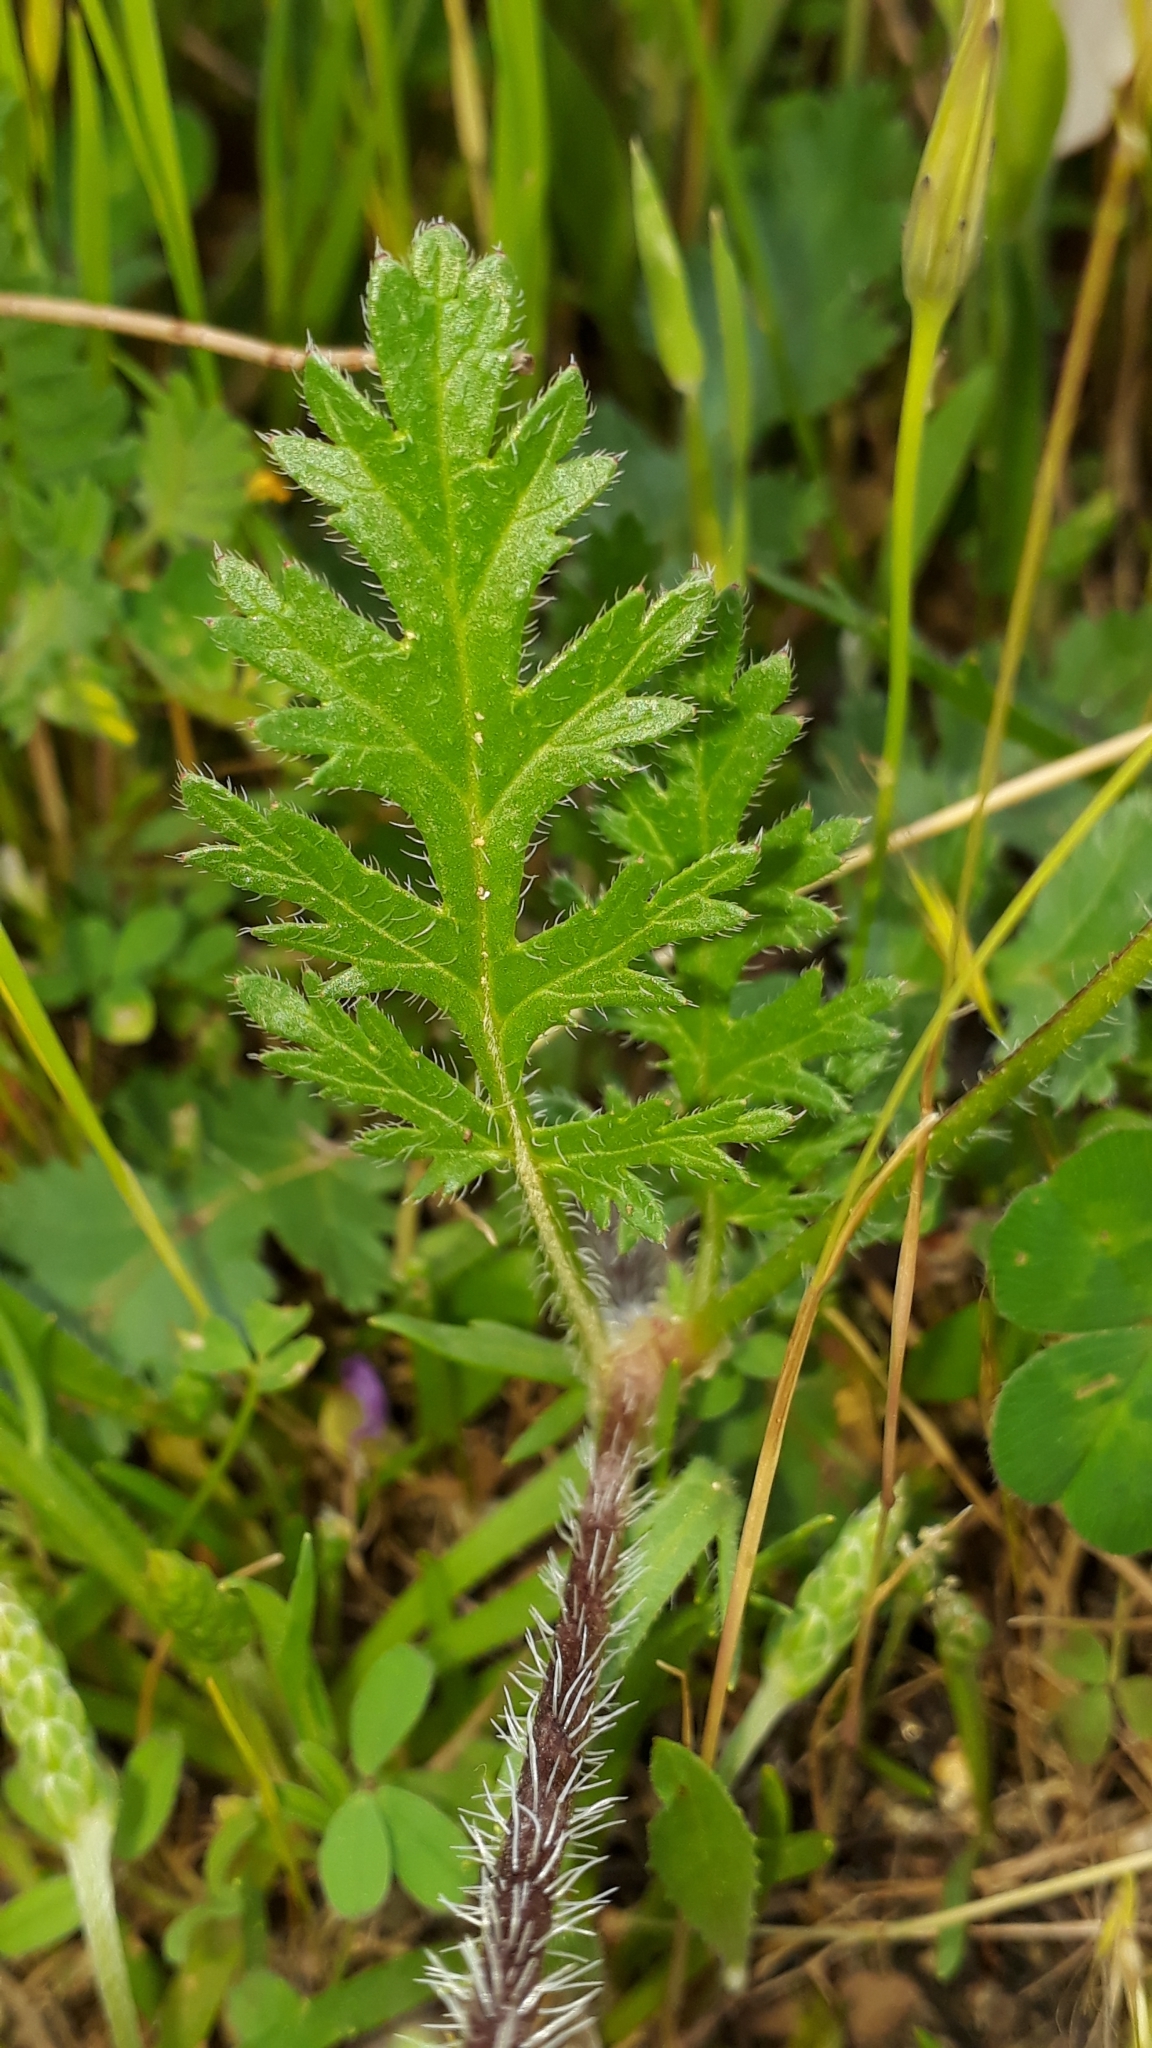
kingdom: Plantae
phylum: Tracheophyta
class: Magnoliopsida
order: Geraniales
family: Geraniaceae
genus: Erodium
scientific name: Erodium botrys
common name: Mediterranean stork's-bill
